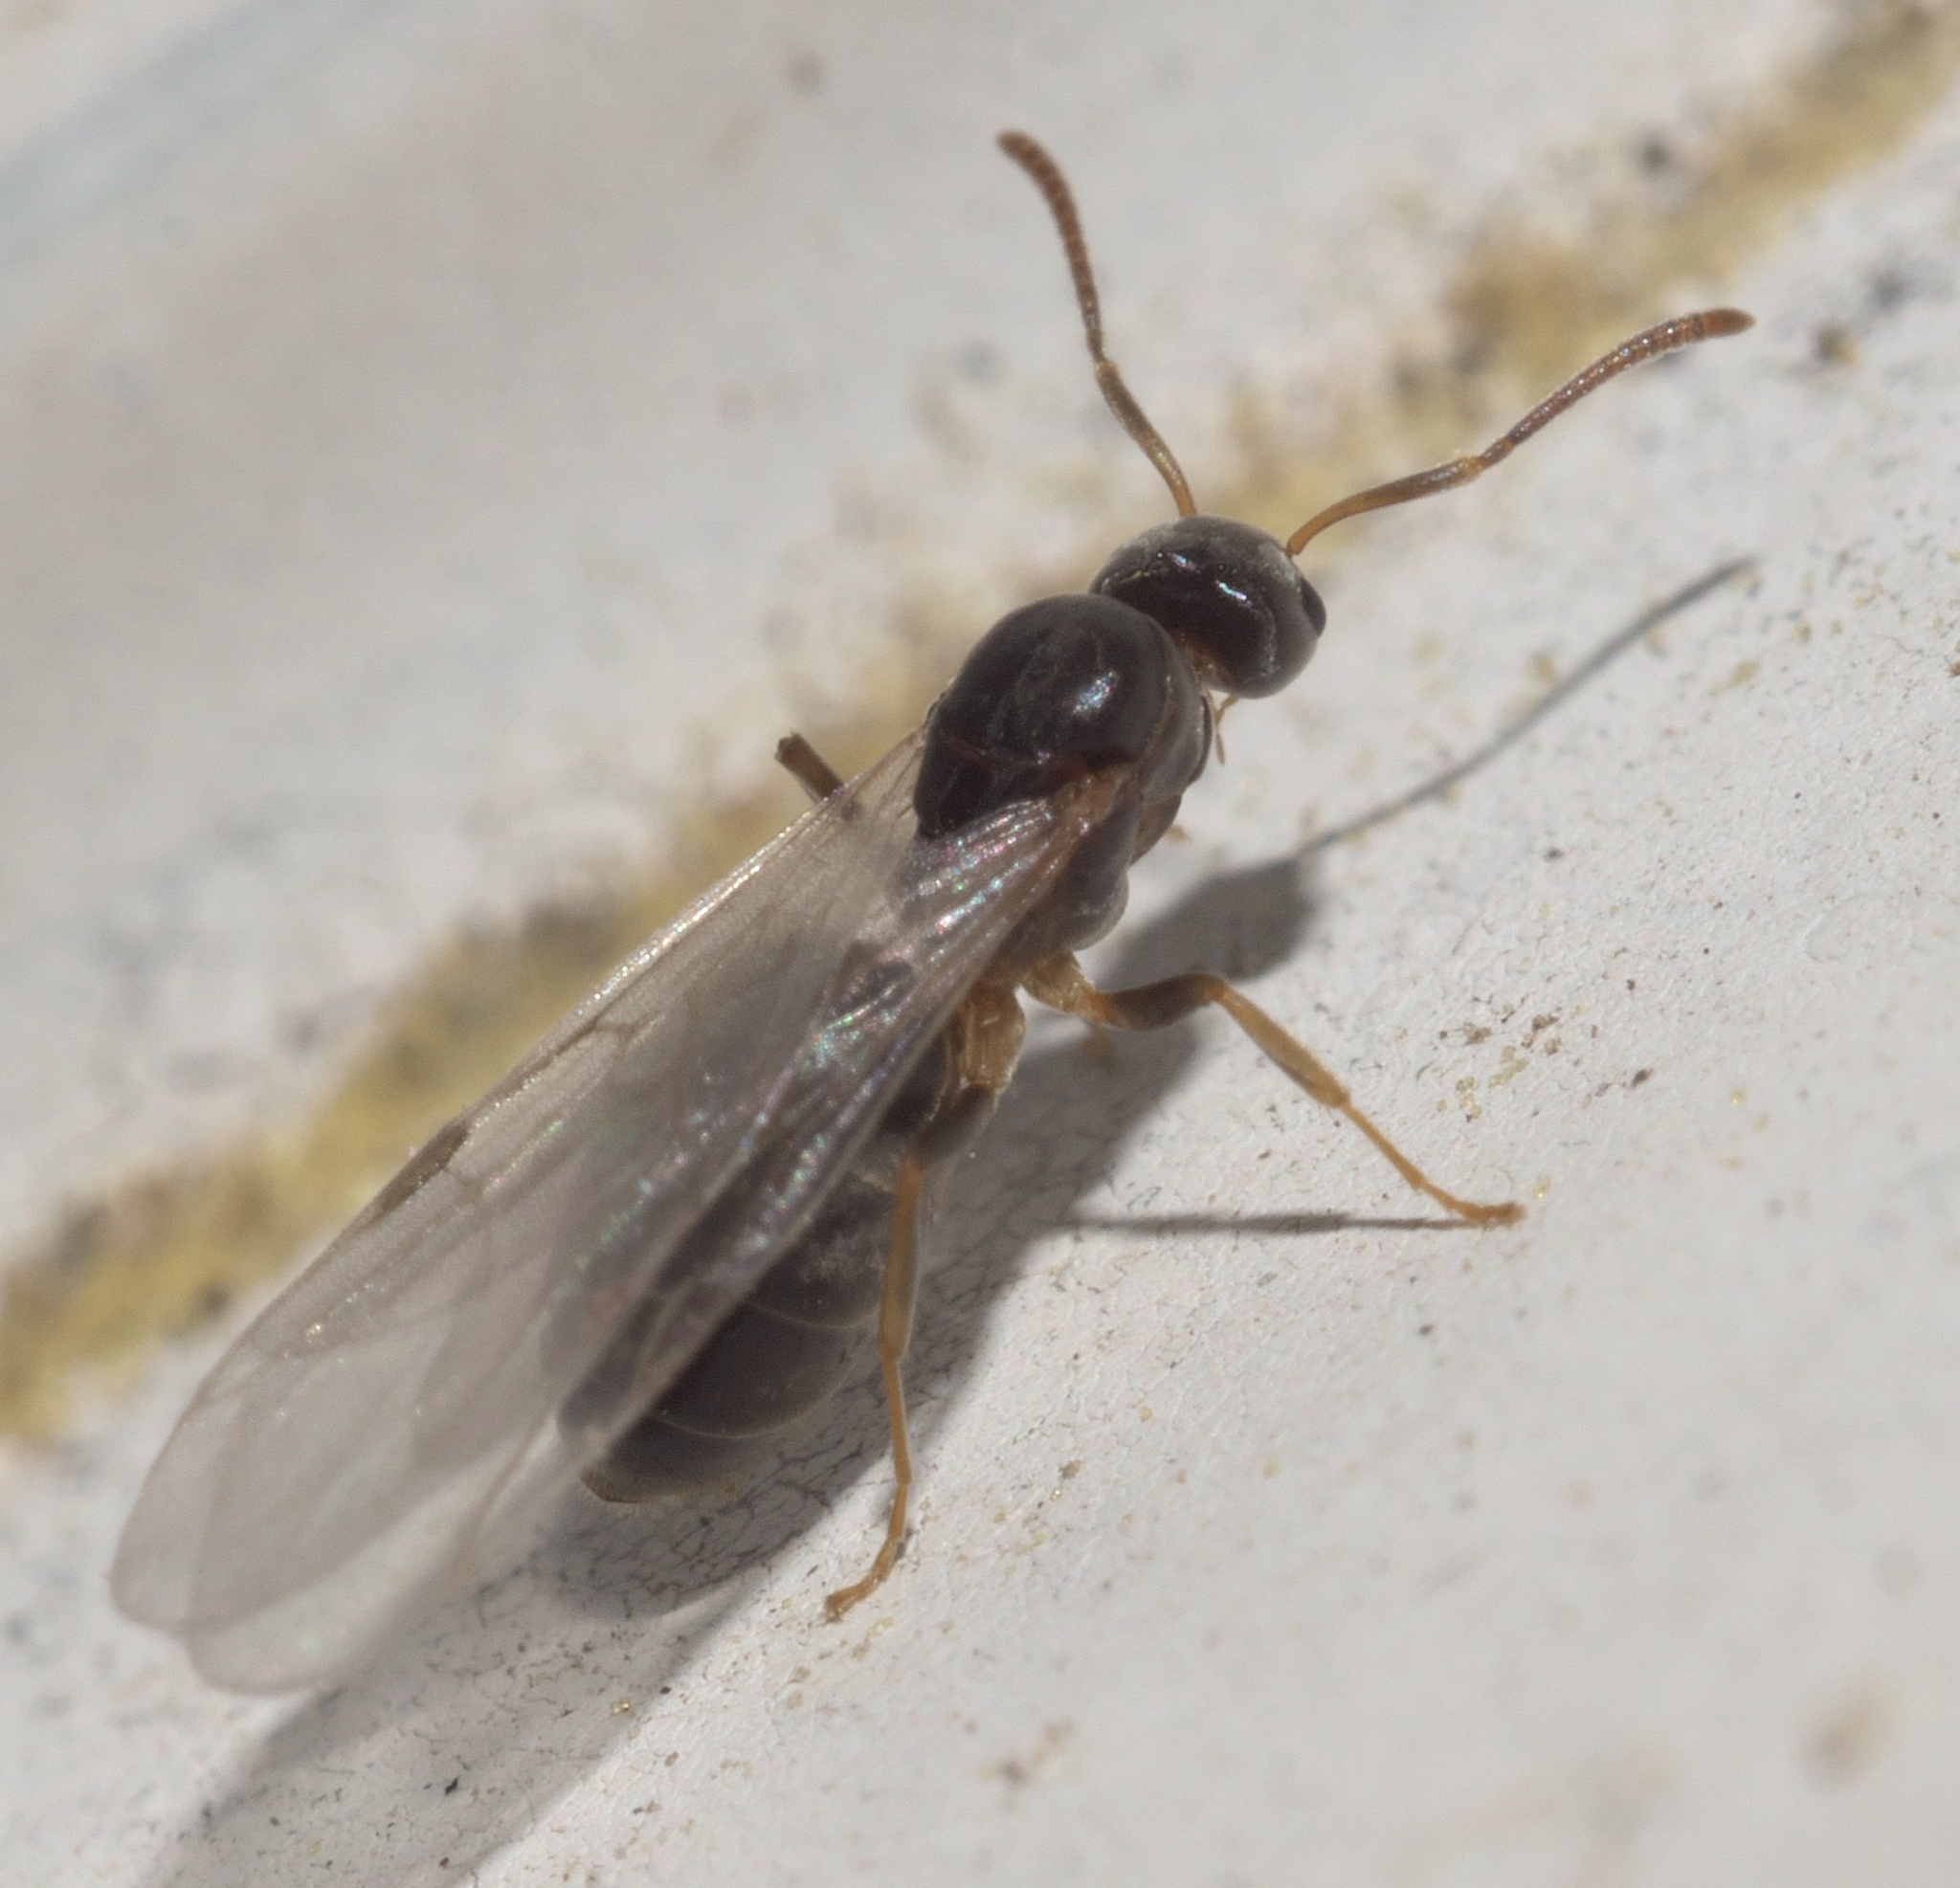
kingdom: Animalia
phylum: Arthropoda
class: Insecta
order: Hymenoptera
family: Formicidae
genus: Tapinoma
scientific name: Tapinoma sessile
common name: Odorous house ant
